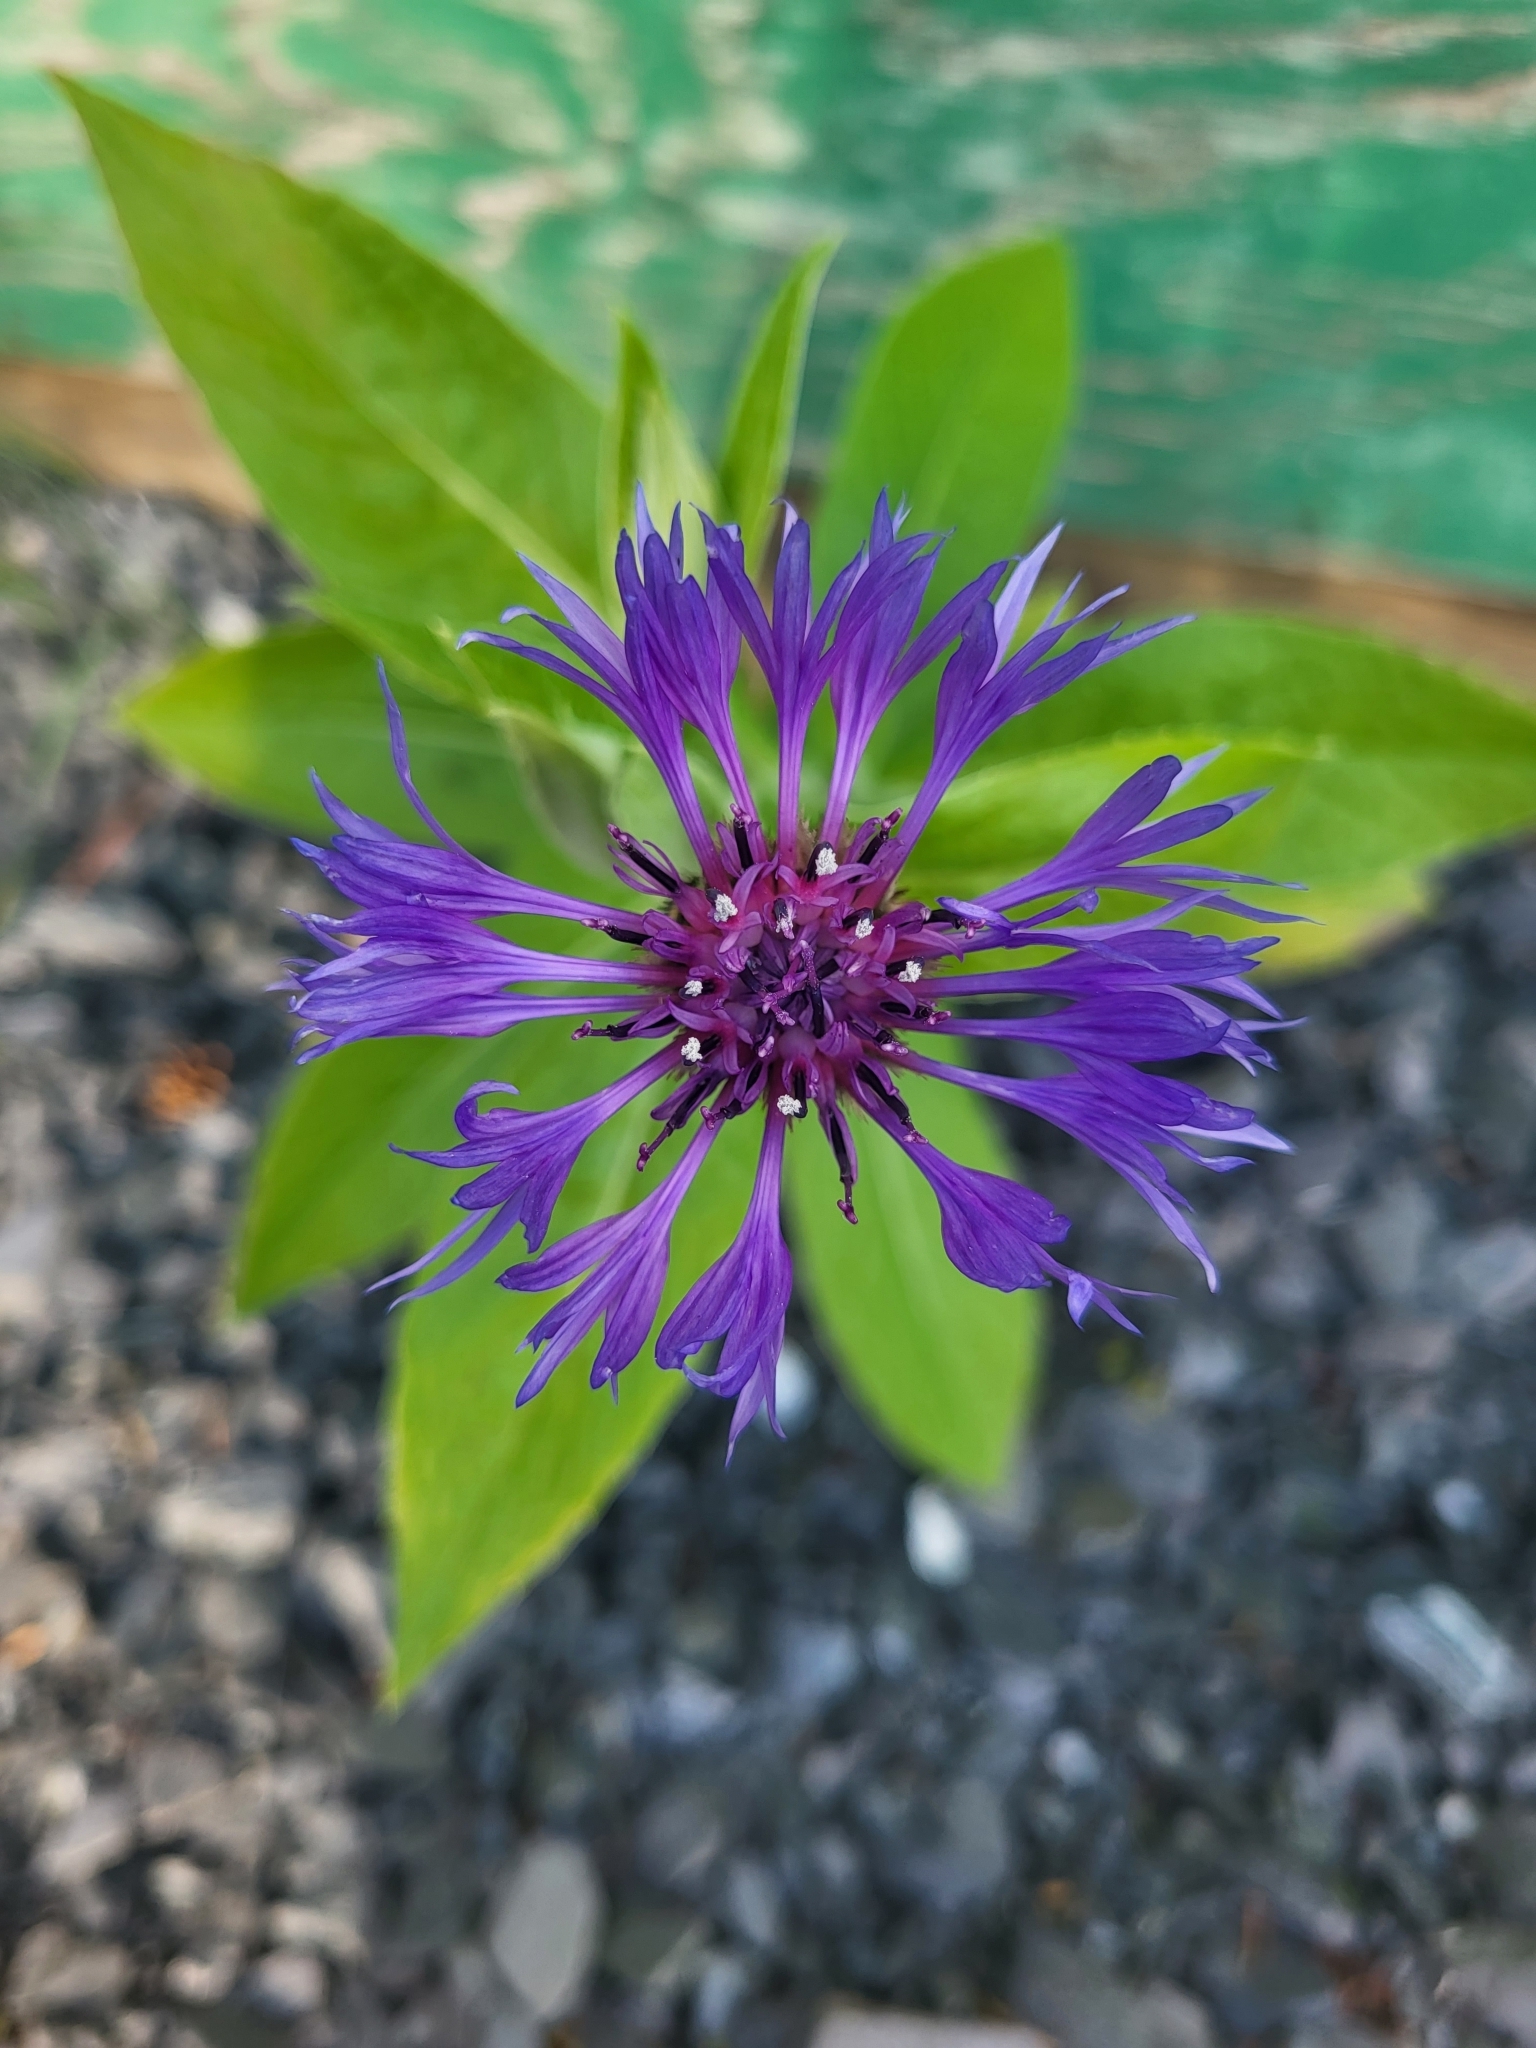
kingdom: Plantae
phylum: Tracheophyta
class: Magnoliopsida
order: Asterales
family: Asteraceae
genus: Centaurea
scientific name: Centaurea montana
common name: Perennial cornflower
